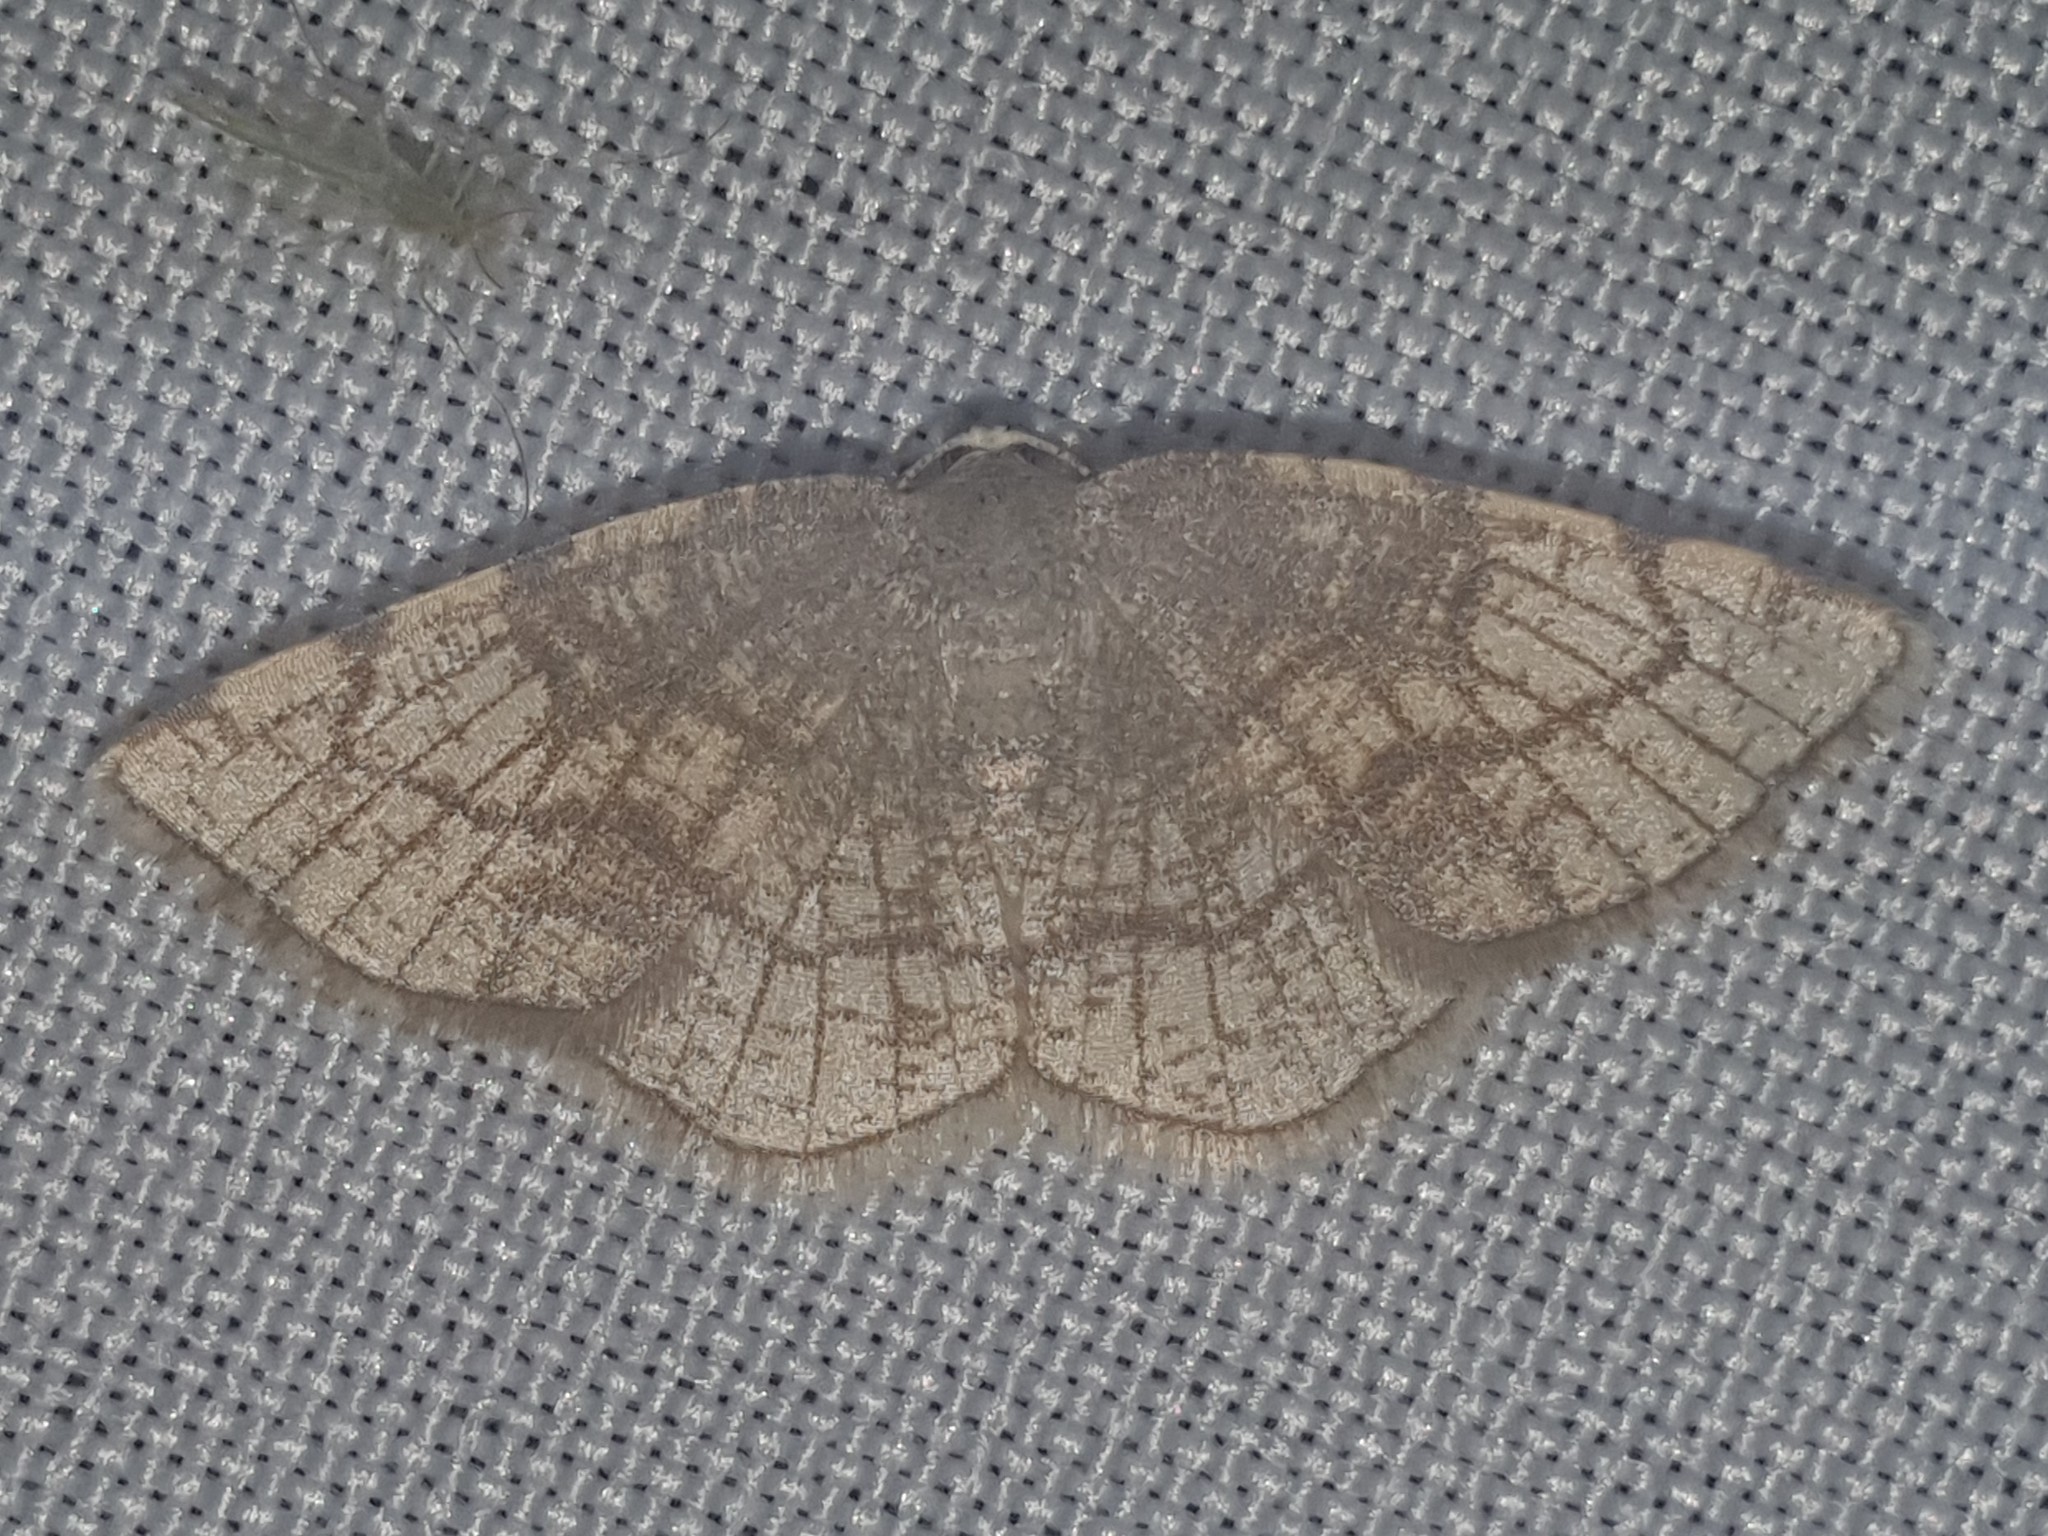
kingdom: Animalia
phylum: Arthropoda
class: Insecta
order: Lepidoptera
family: Geometridae
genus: Stegania
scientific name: Stegania trimaculata
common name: Dorset cream wave
